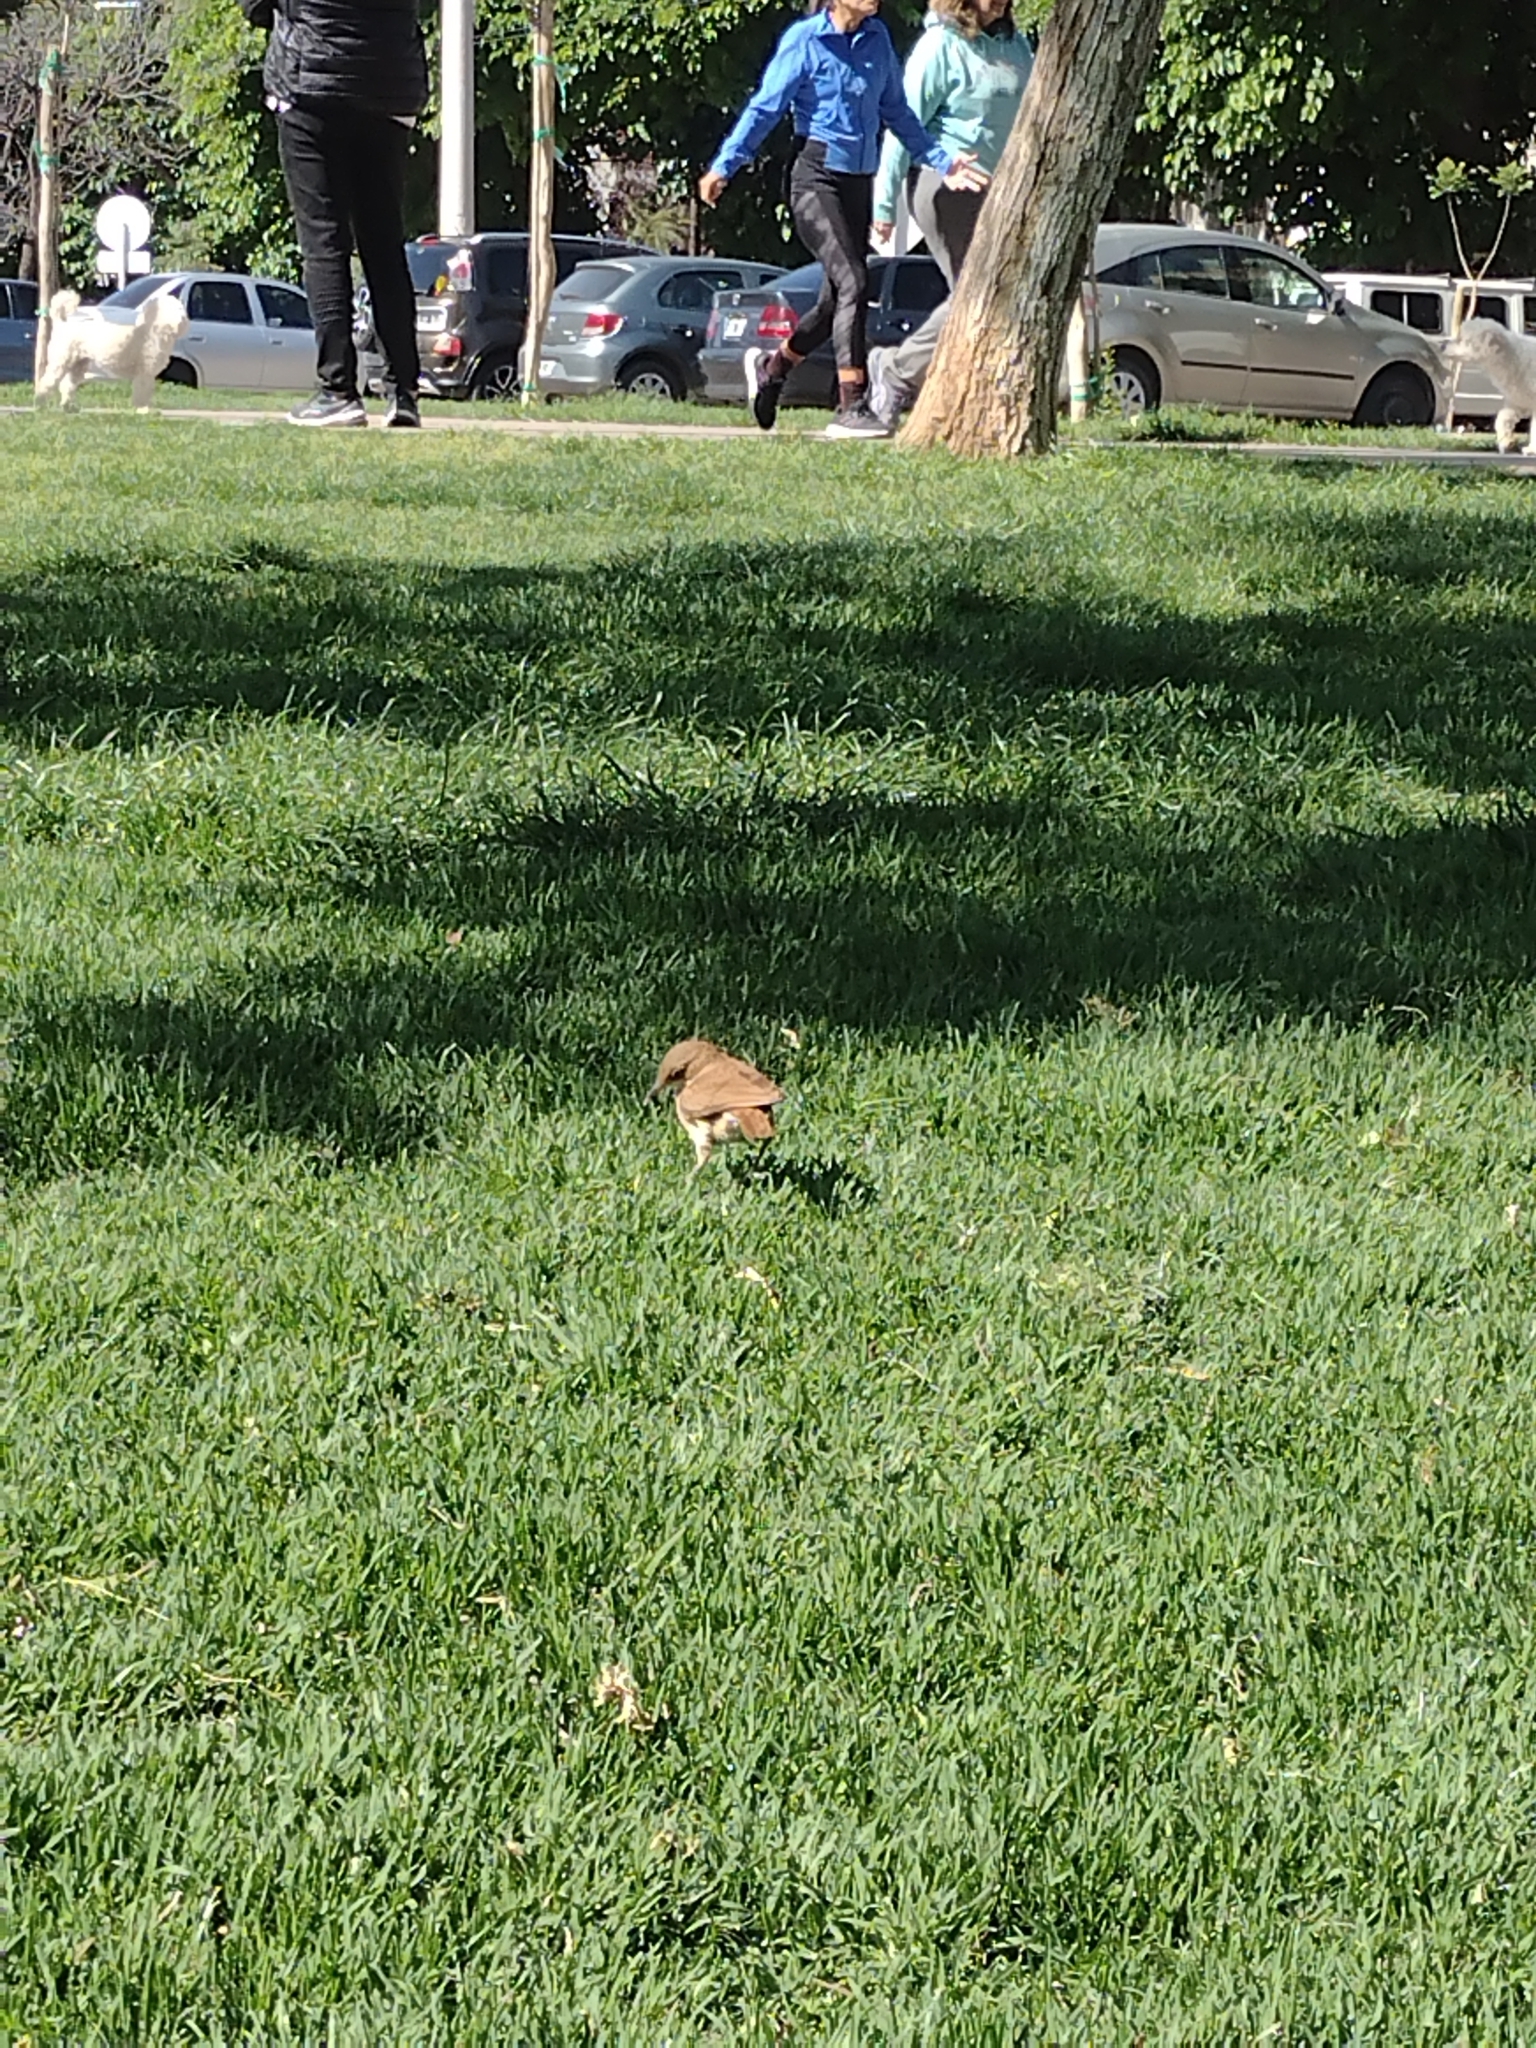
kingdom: Animalia
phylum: Chordata
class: Aves
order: Passeriformes
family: Furnariidae
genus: Furnarius
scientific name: Furnarius rufus
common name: Rufous hornero
